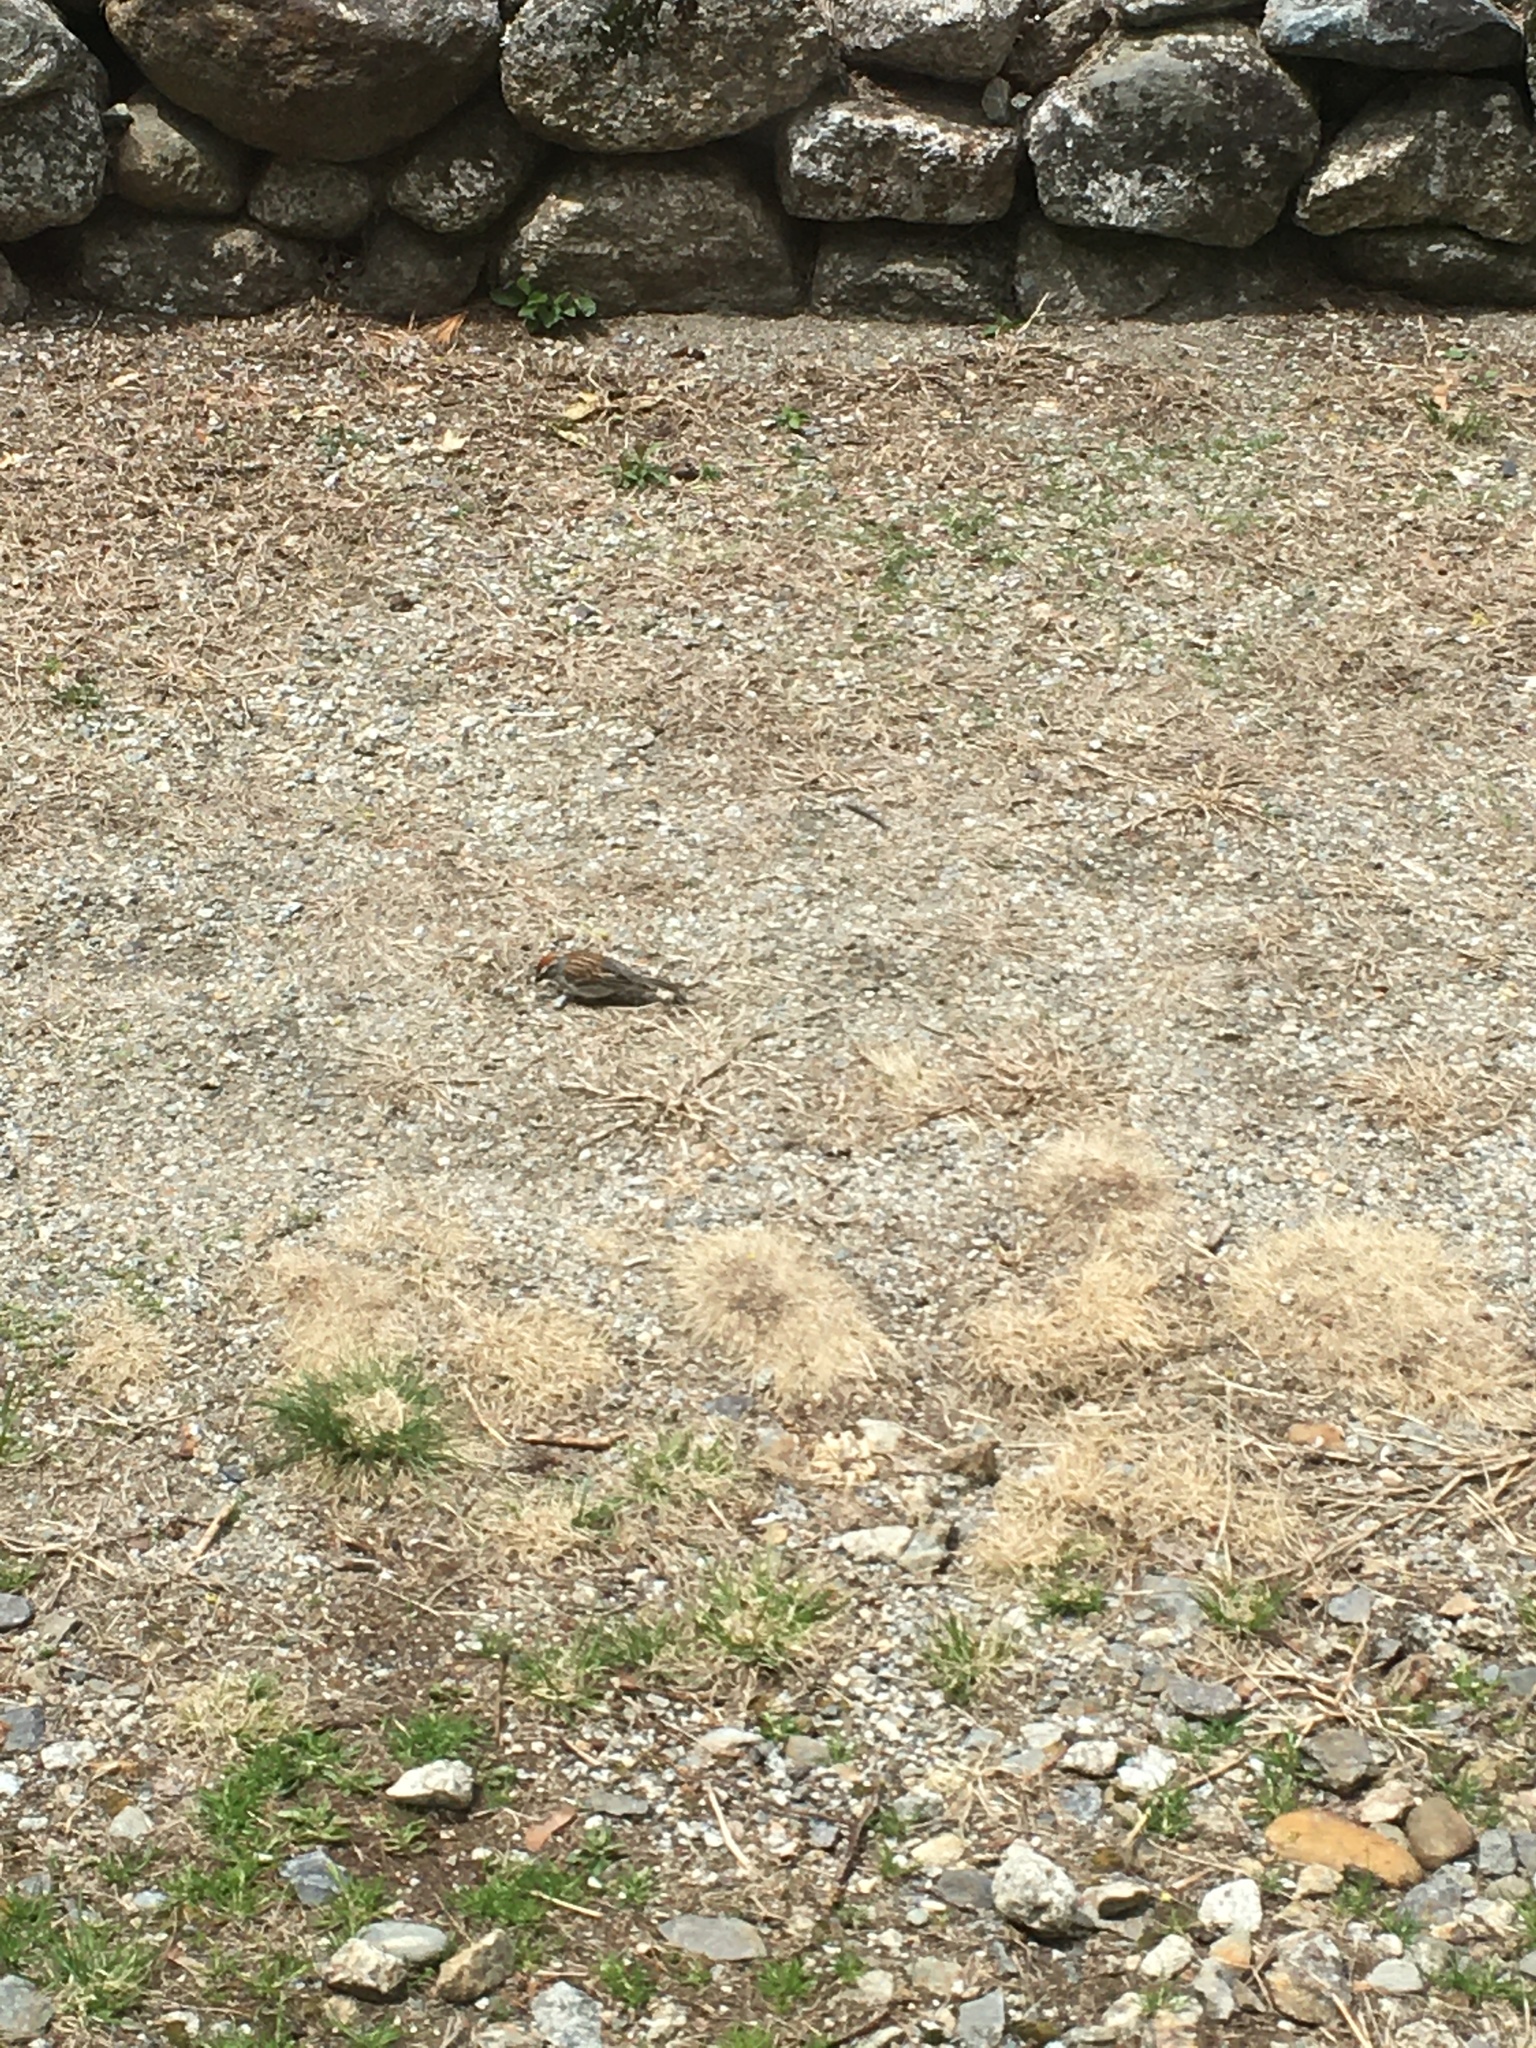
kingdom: Animalia
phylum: Chordata
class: Aves
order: Passeriformes
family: Passerellidae
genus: Spizella
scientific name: Spizella passerina
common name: Chipping sparrow
